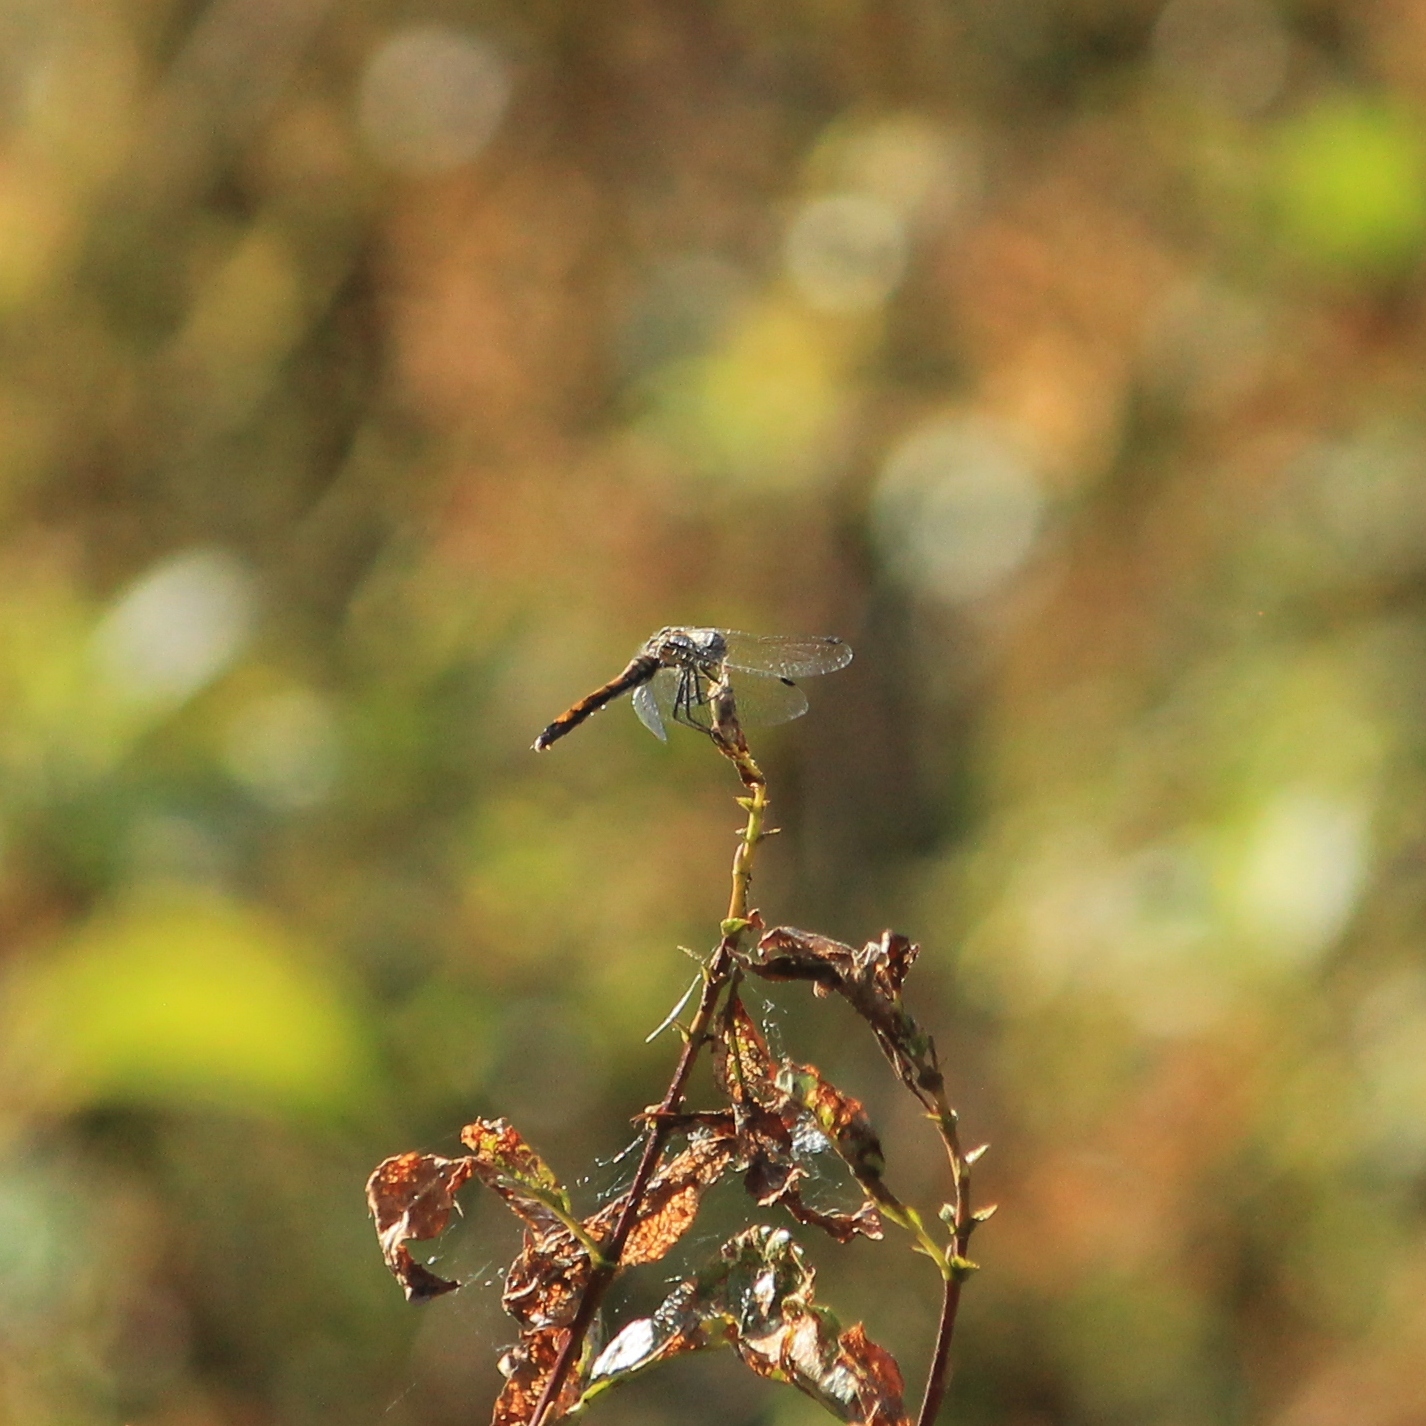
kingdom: Animalia
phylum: Arthropoda
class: Insecta
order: Odonata
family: Libellulidae
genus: Sympetrum
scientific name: Sympetrum danae
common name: Black darter
